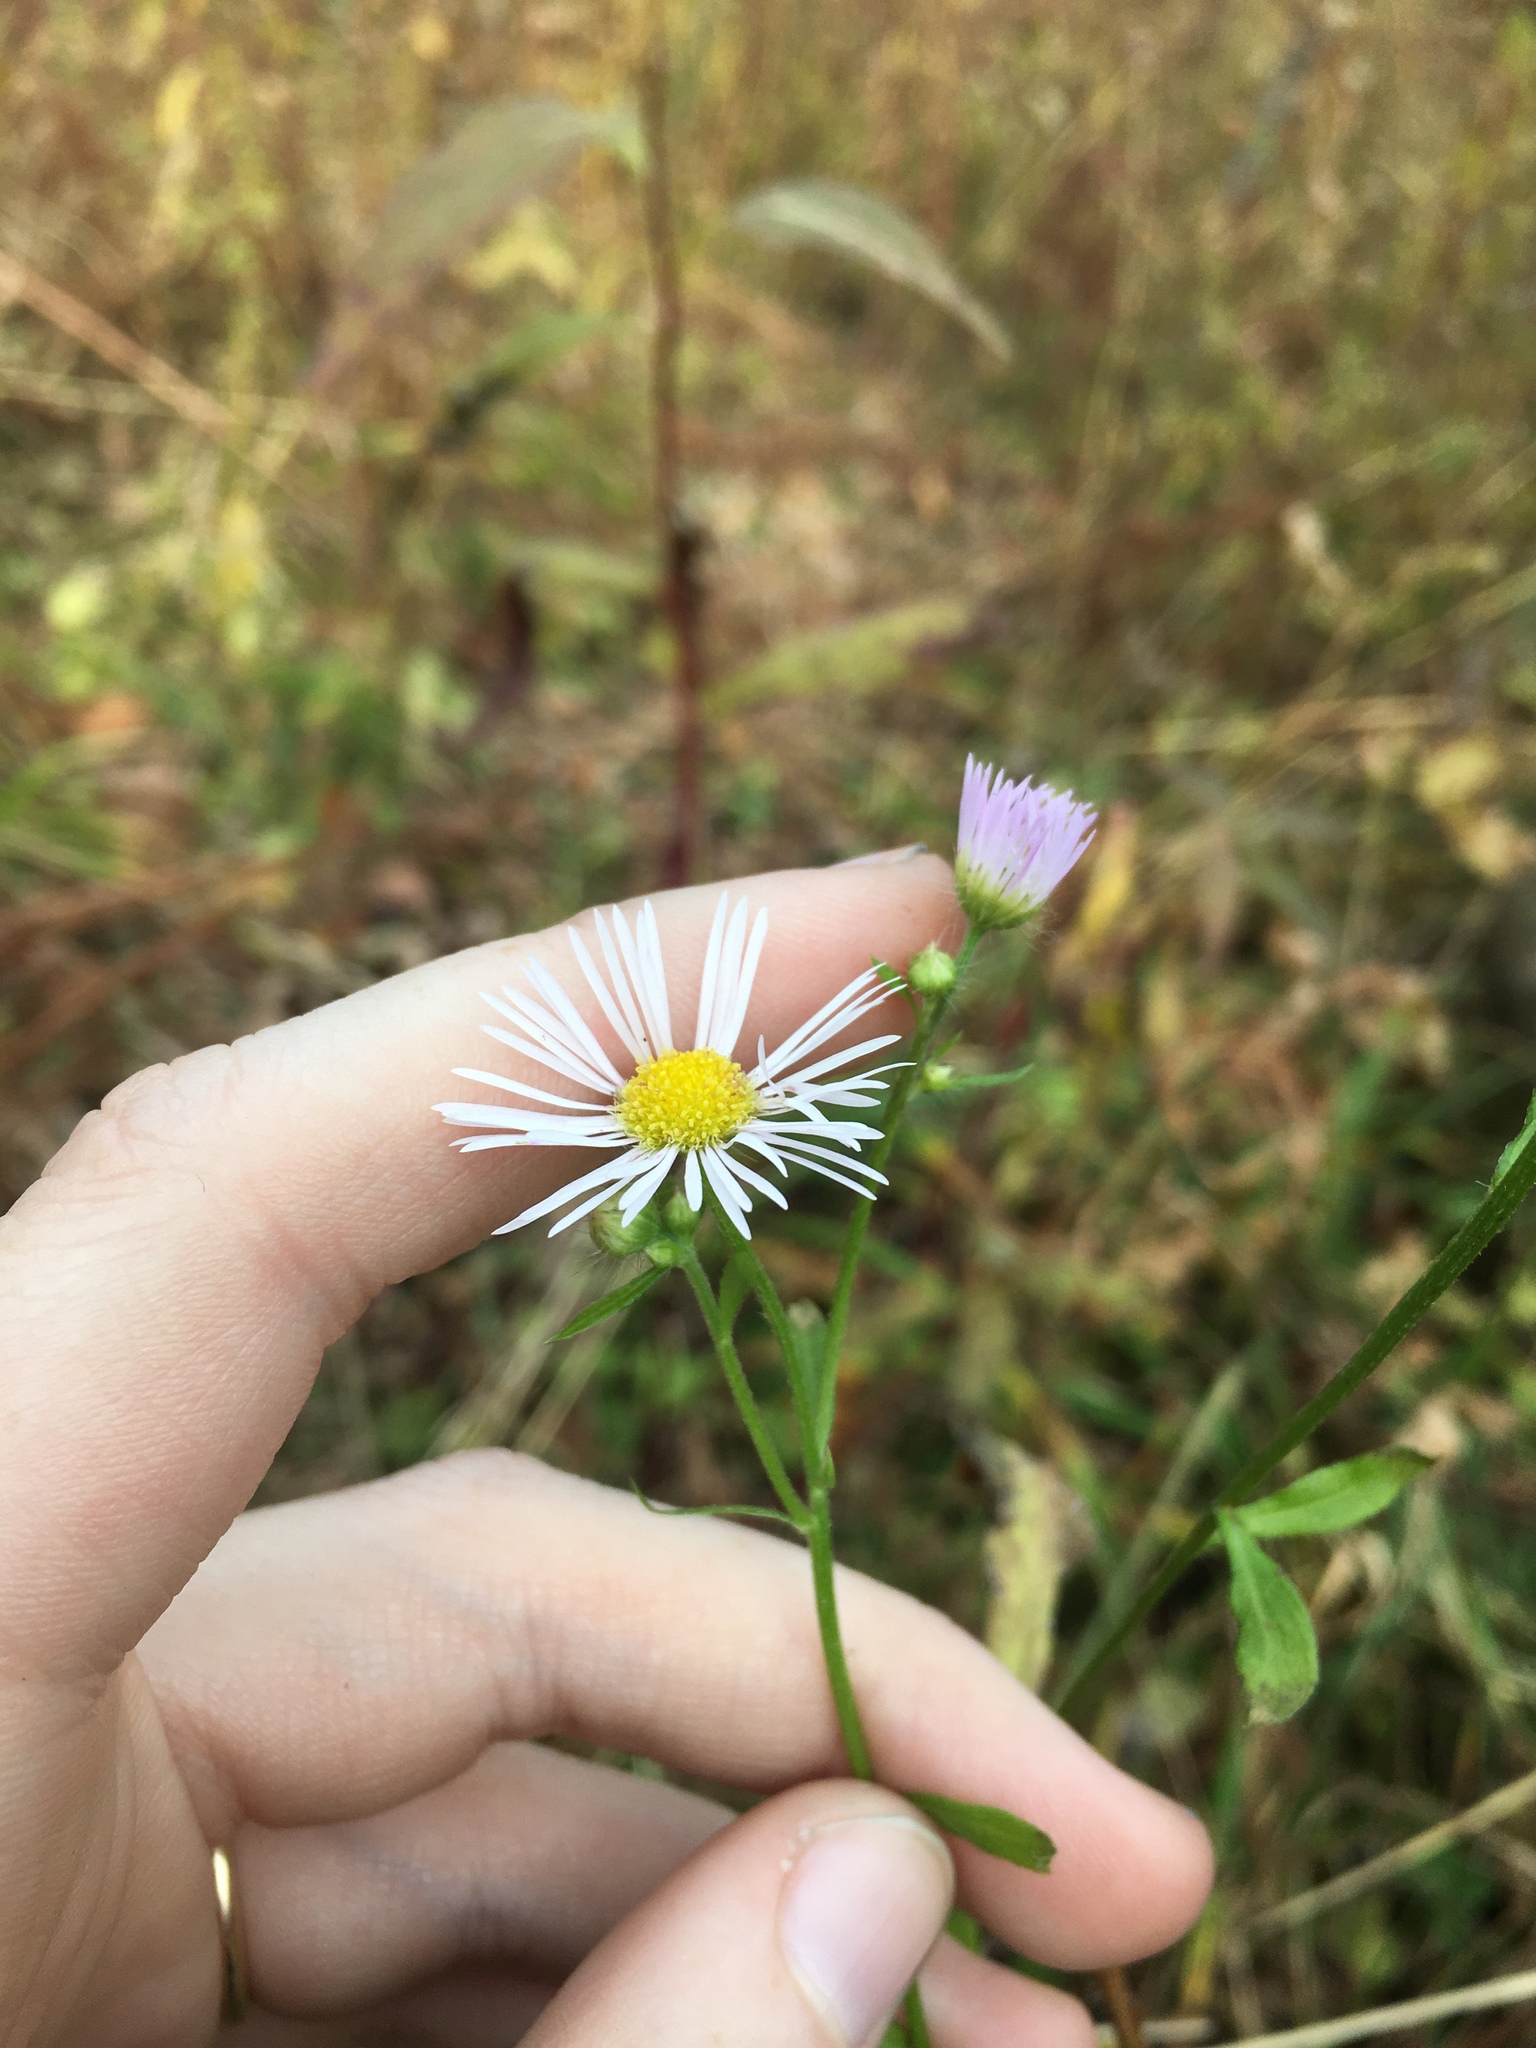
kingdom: Plantae
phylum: Tracheophyta
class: Magnoliopsida
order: Asterales
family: Asteraceae
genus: Erigeron
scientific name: Erigeron strigosus
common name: Common eastern fleabane
